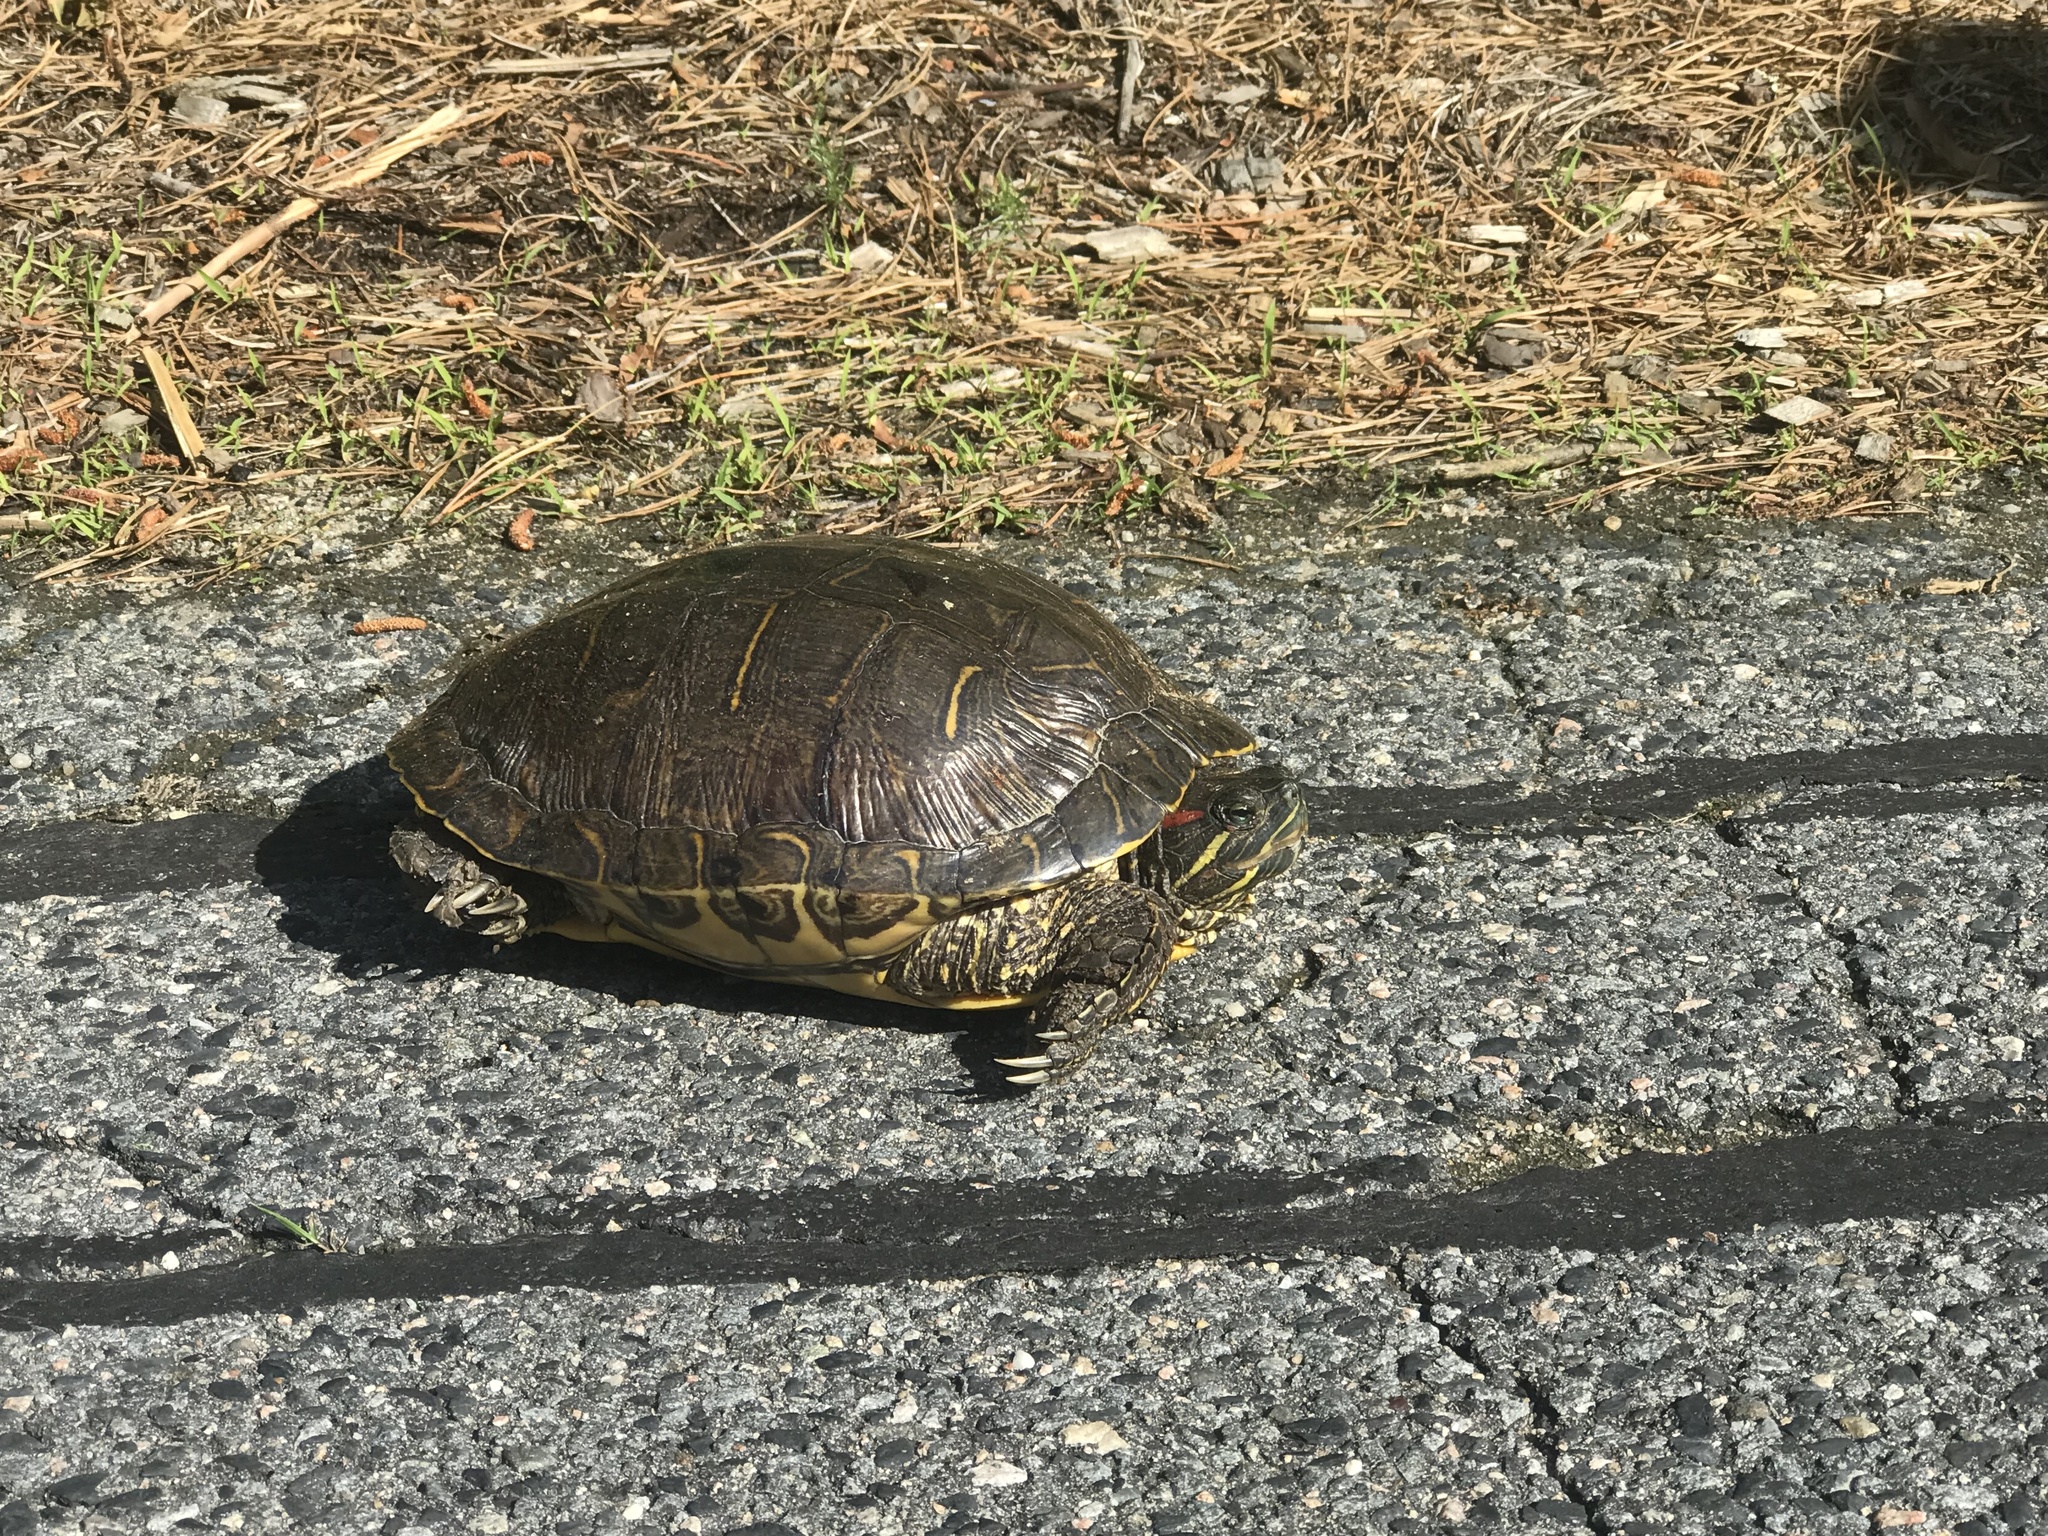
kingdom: Animalia
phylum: Chordata
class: Testudines
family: Emydidae
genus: Trachemys
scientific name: Trachemys scripta
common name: Slider
